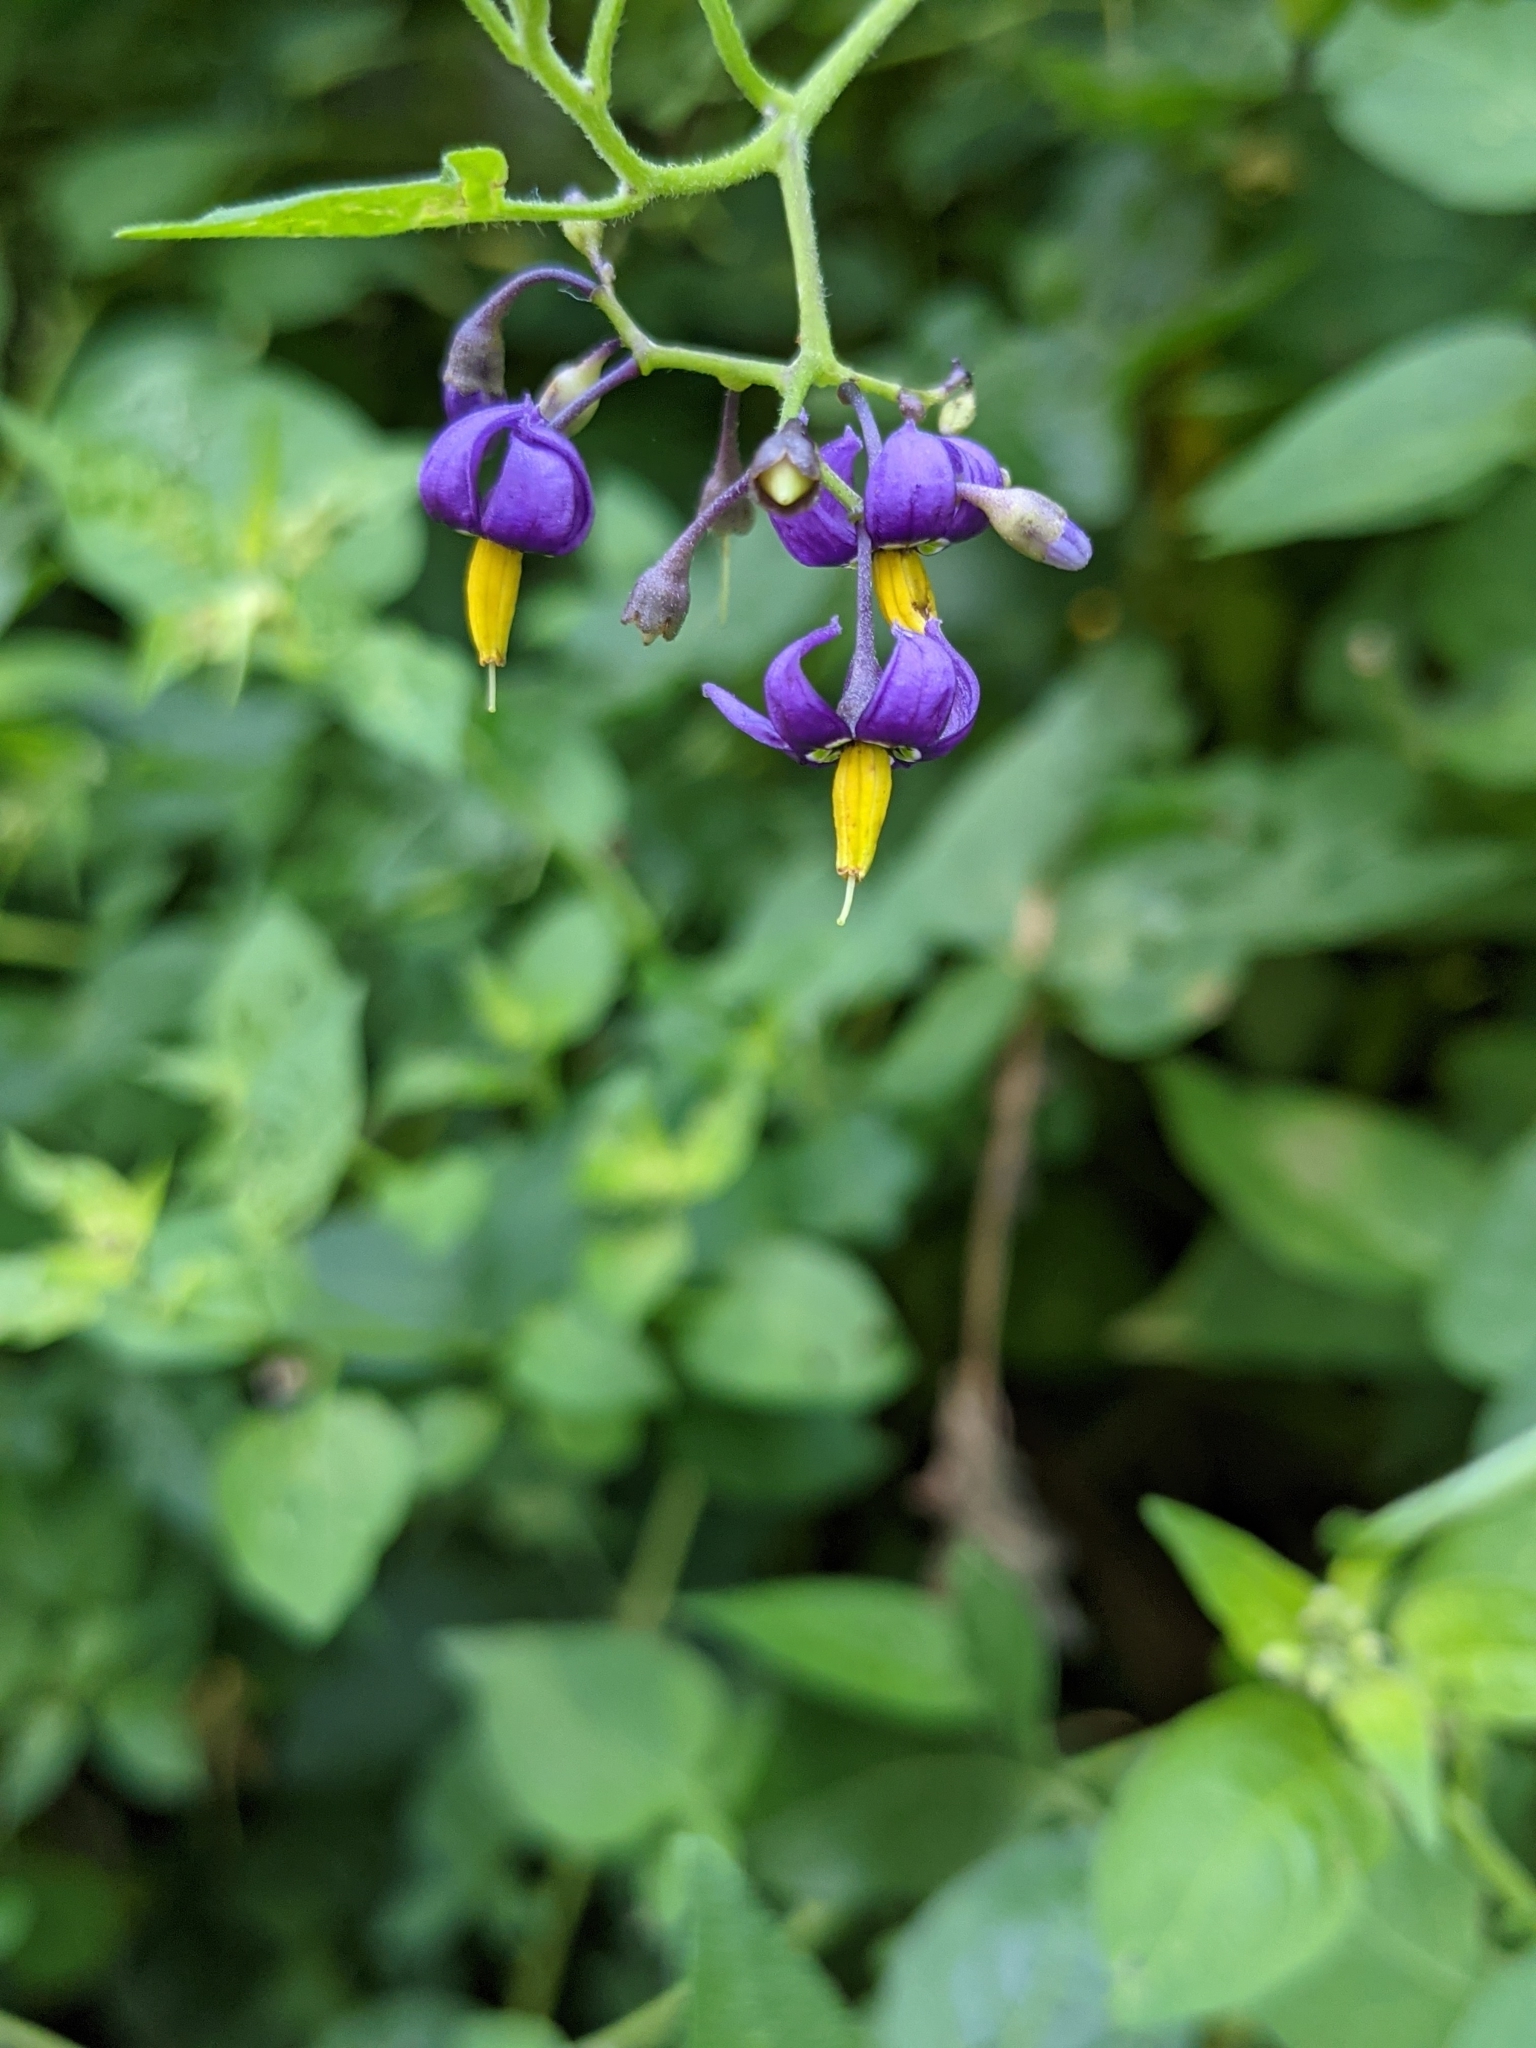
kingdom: Plantae
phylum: Tracheophyta
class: Magnoliopsida
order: Solanales
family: Solanaceae
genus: Solanum
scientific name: Solanum dulcamara
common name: Climbing nightshade
